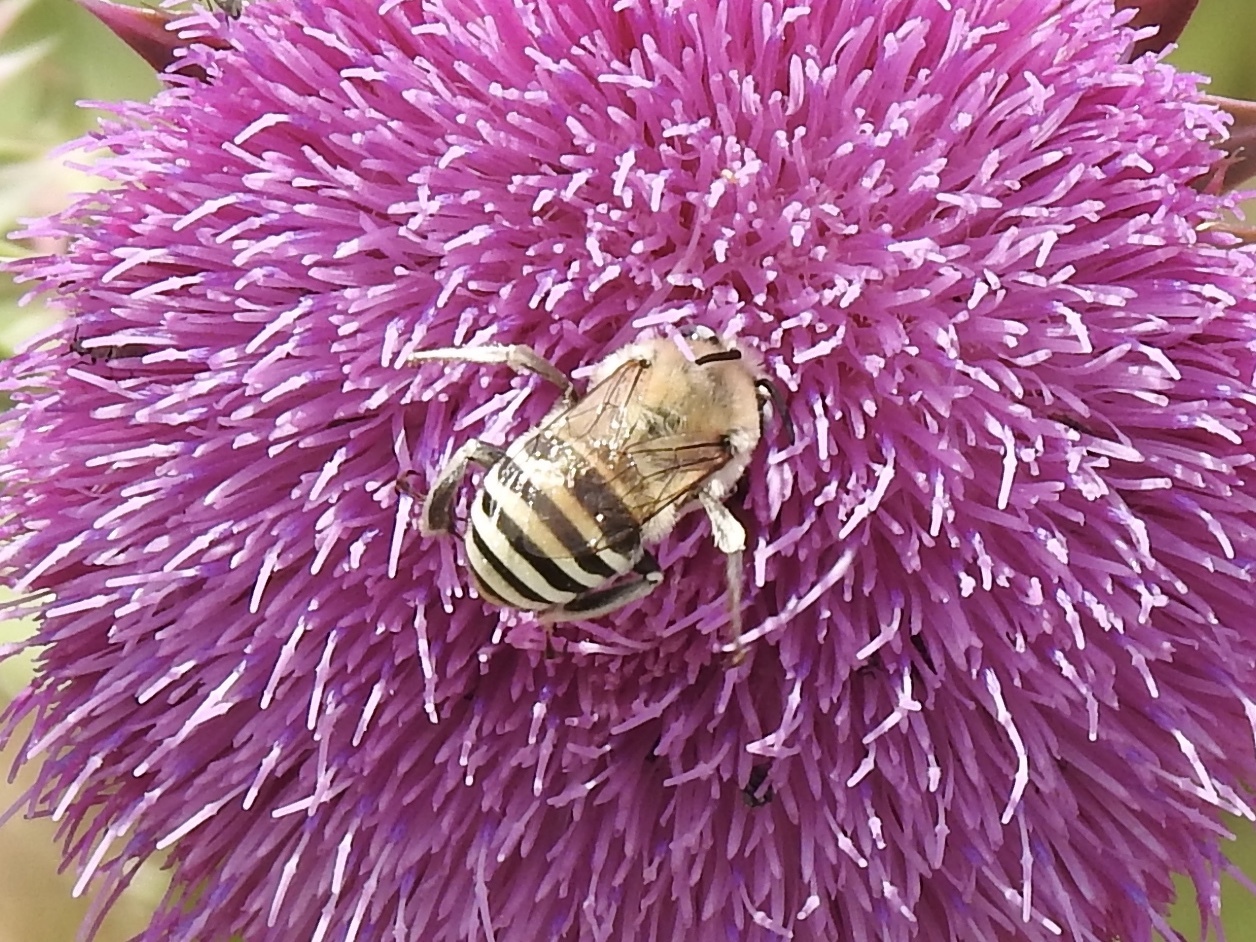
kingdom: Animalia
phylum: Arthropoda
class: Insecta
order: Hymenoptera
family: Apidae
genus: Anthophora
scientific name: Anthophora montana
